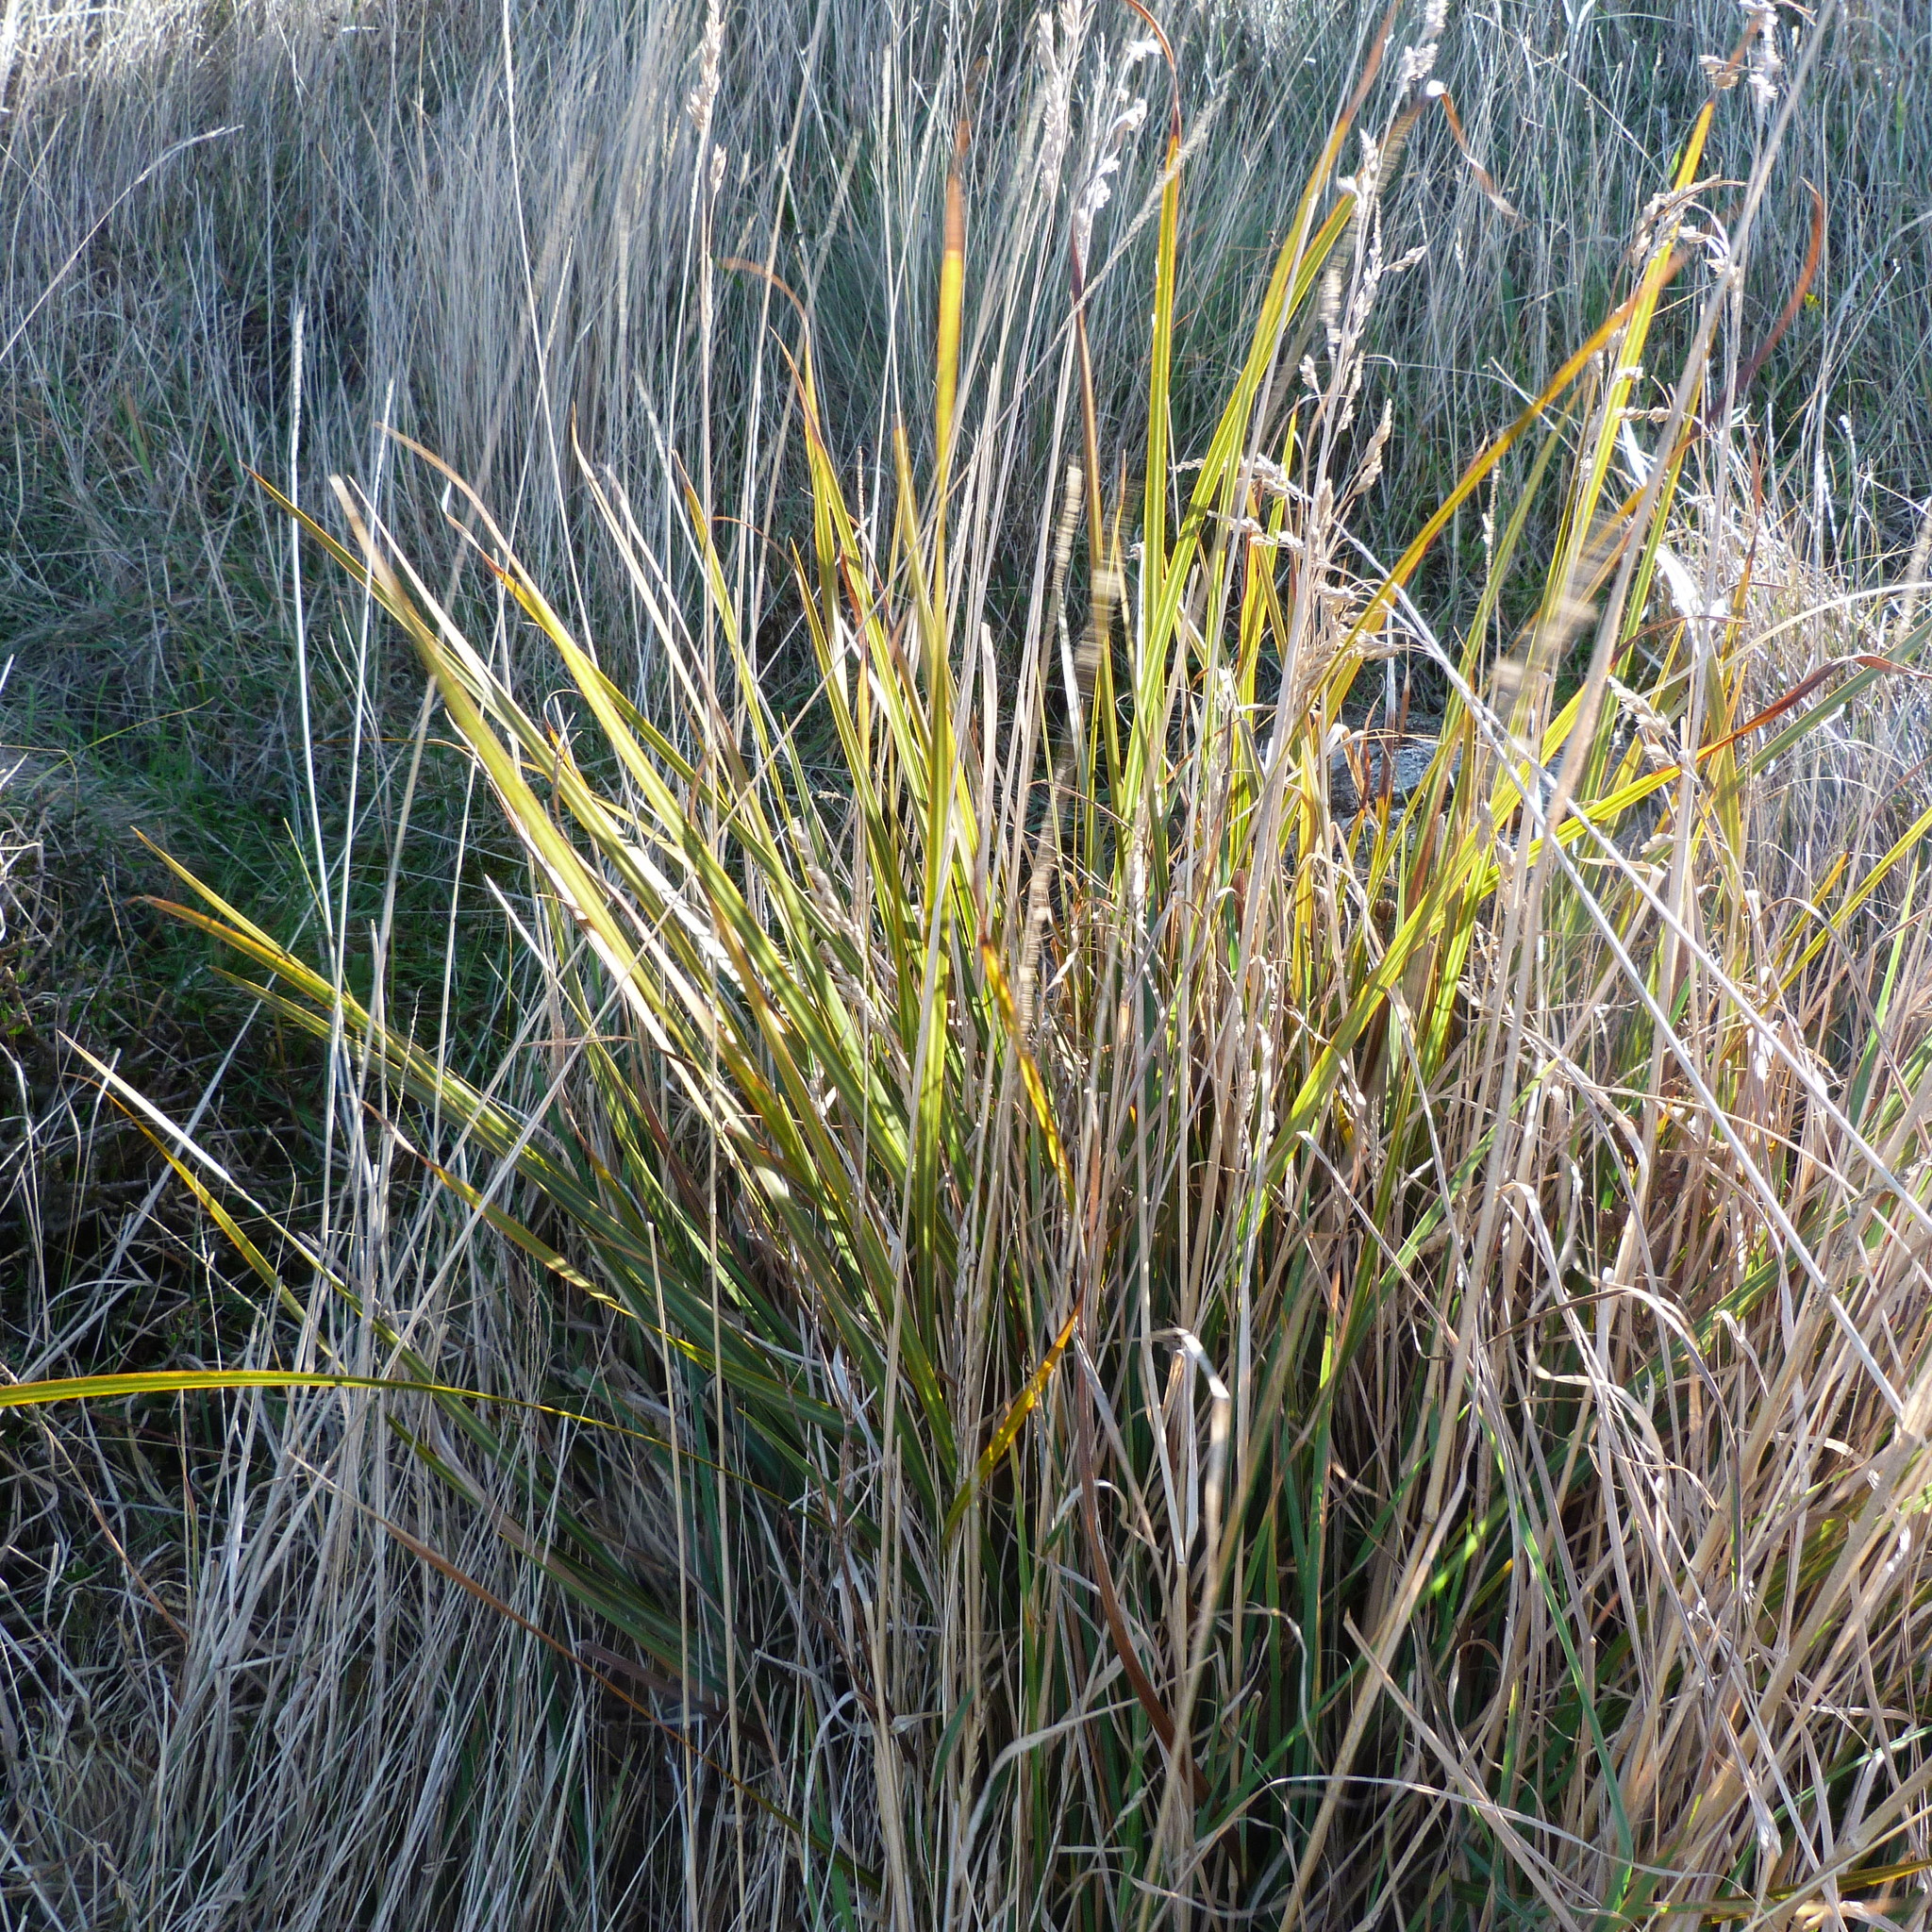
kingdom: Plantae
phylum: Tracheophyta
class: Liliopsida
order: Asparagales
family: Iridaceae
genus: Libertia
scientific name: Libertia ixioides
